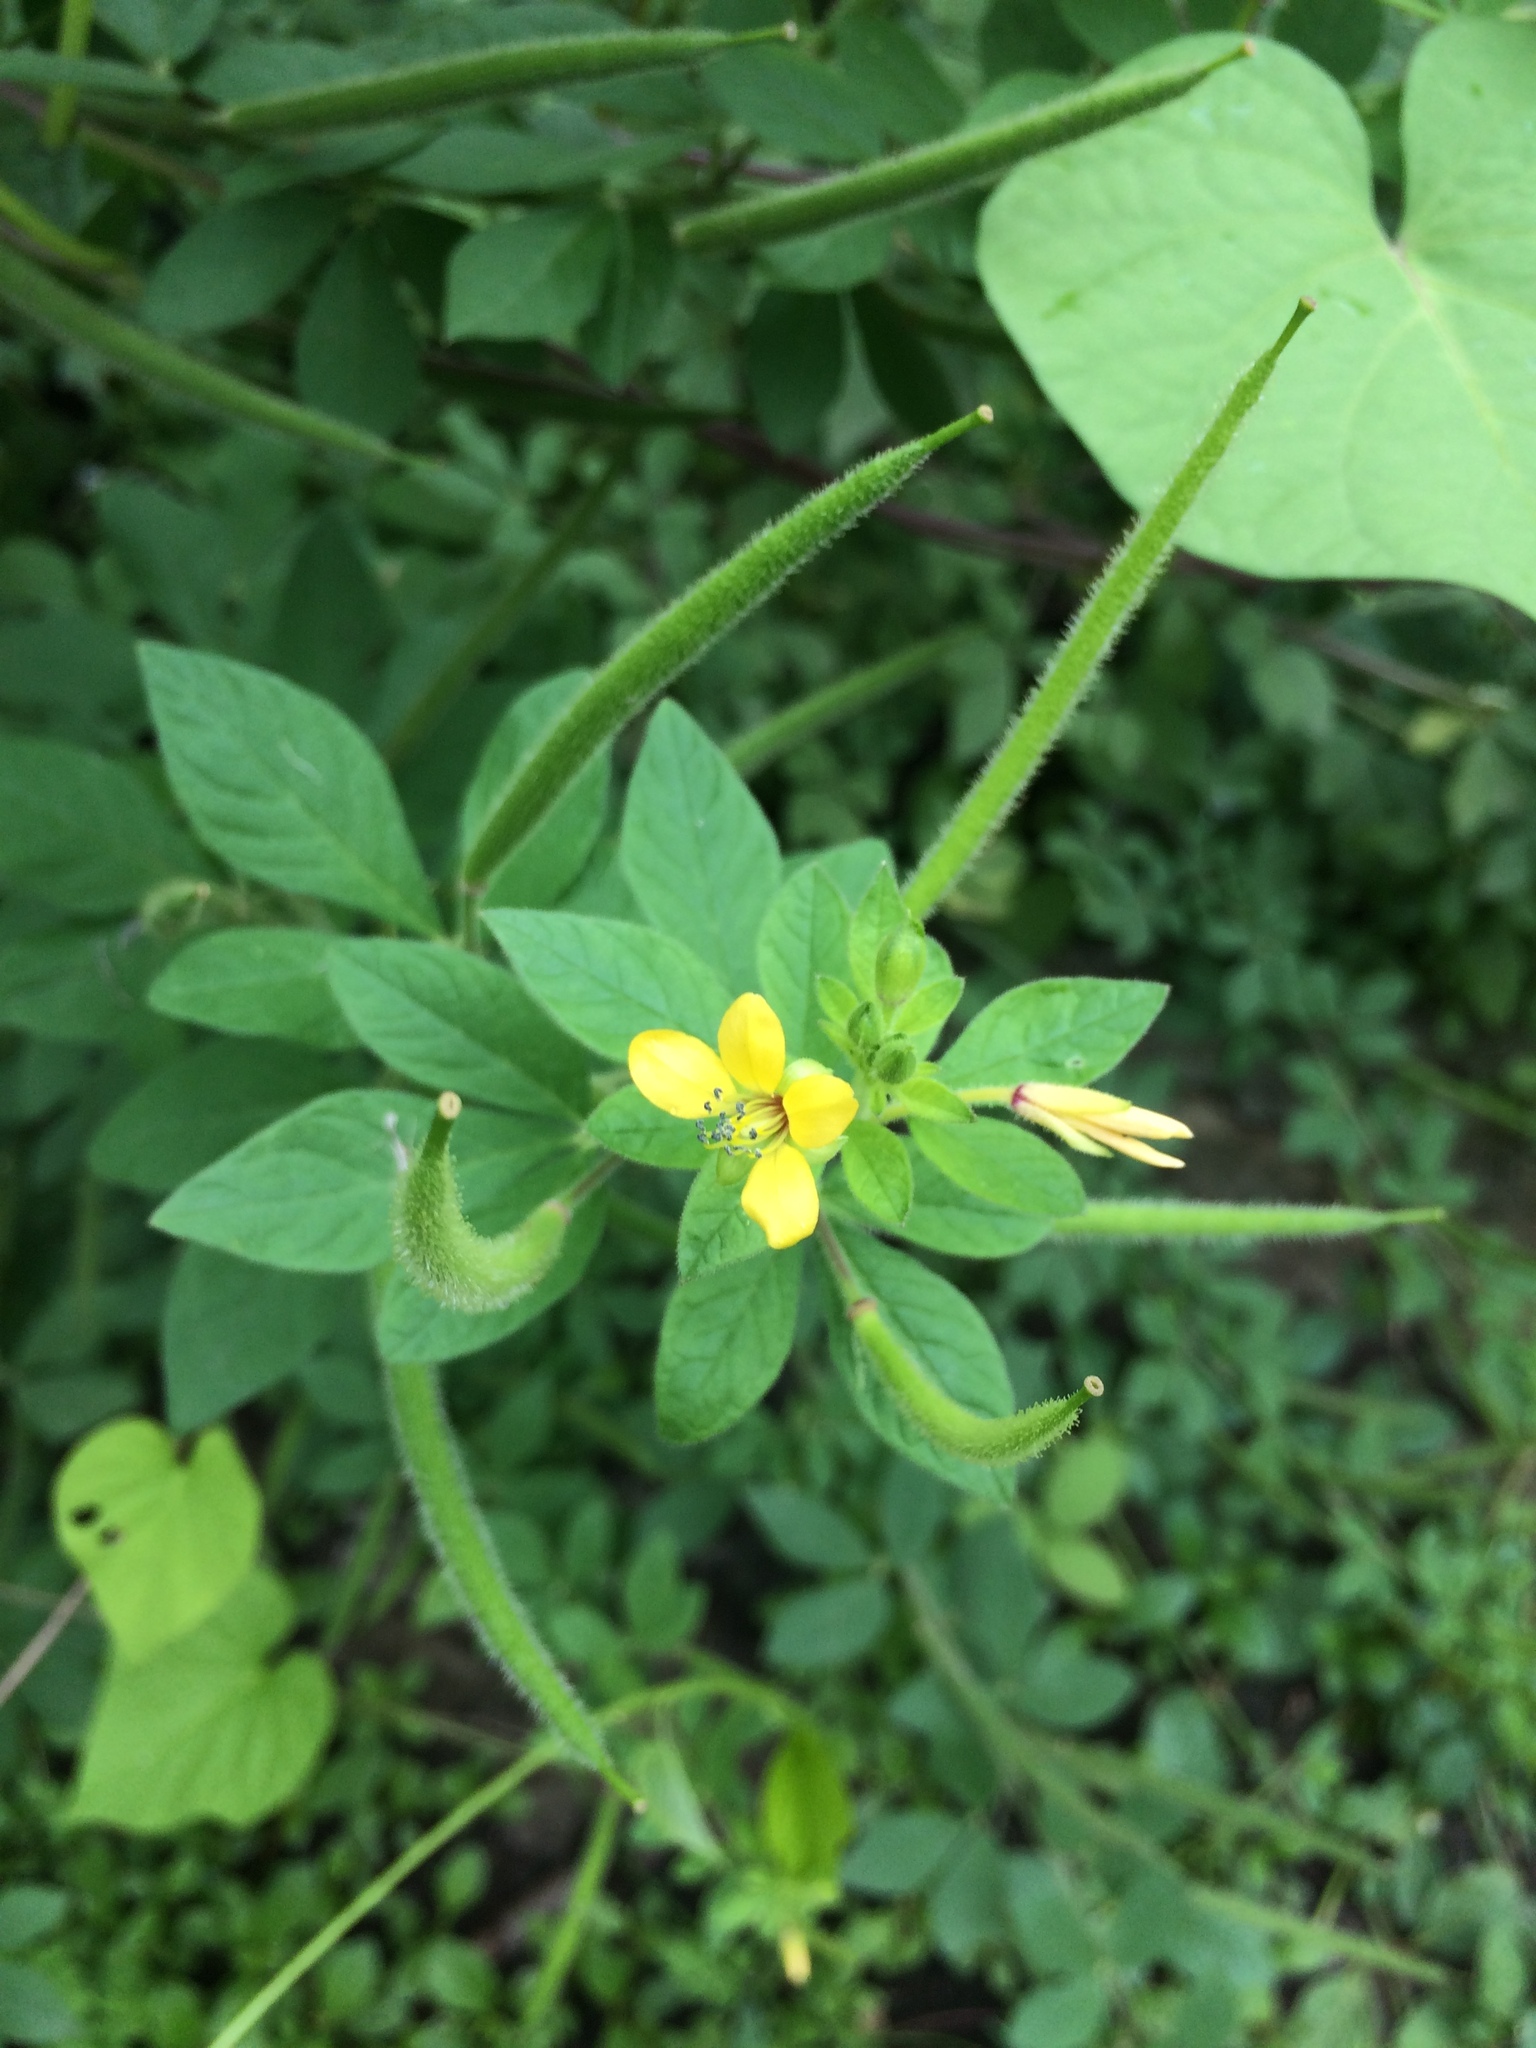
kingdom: Plantae
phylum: Tracheophyta
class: Magnoliopsida
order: Brassicales
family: Cleomaceae
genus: Arivela
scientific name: Arivela viscosa
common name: Asian spiderflower
